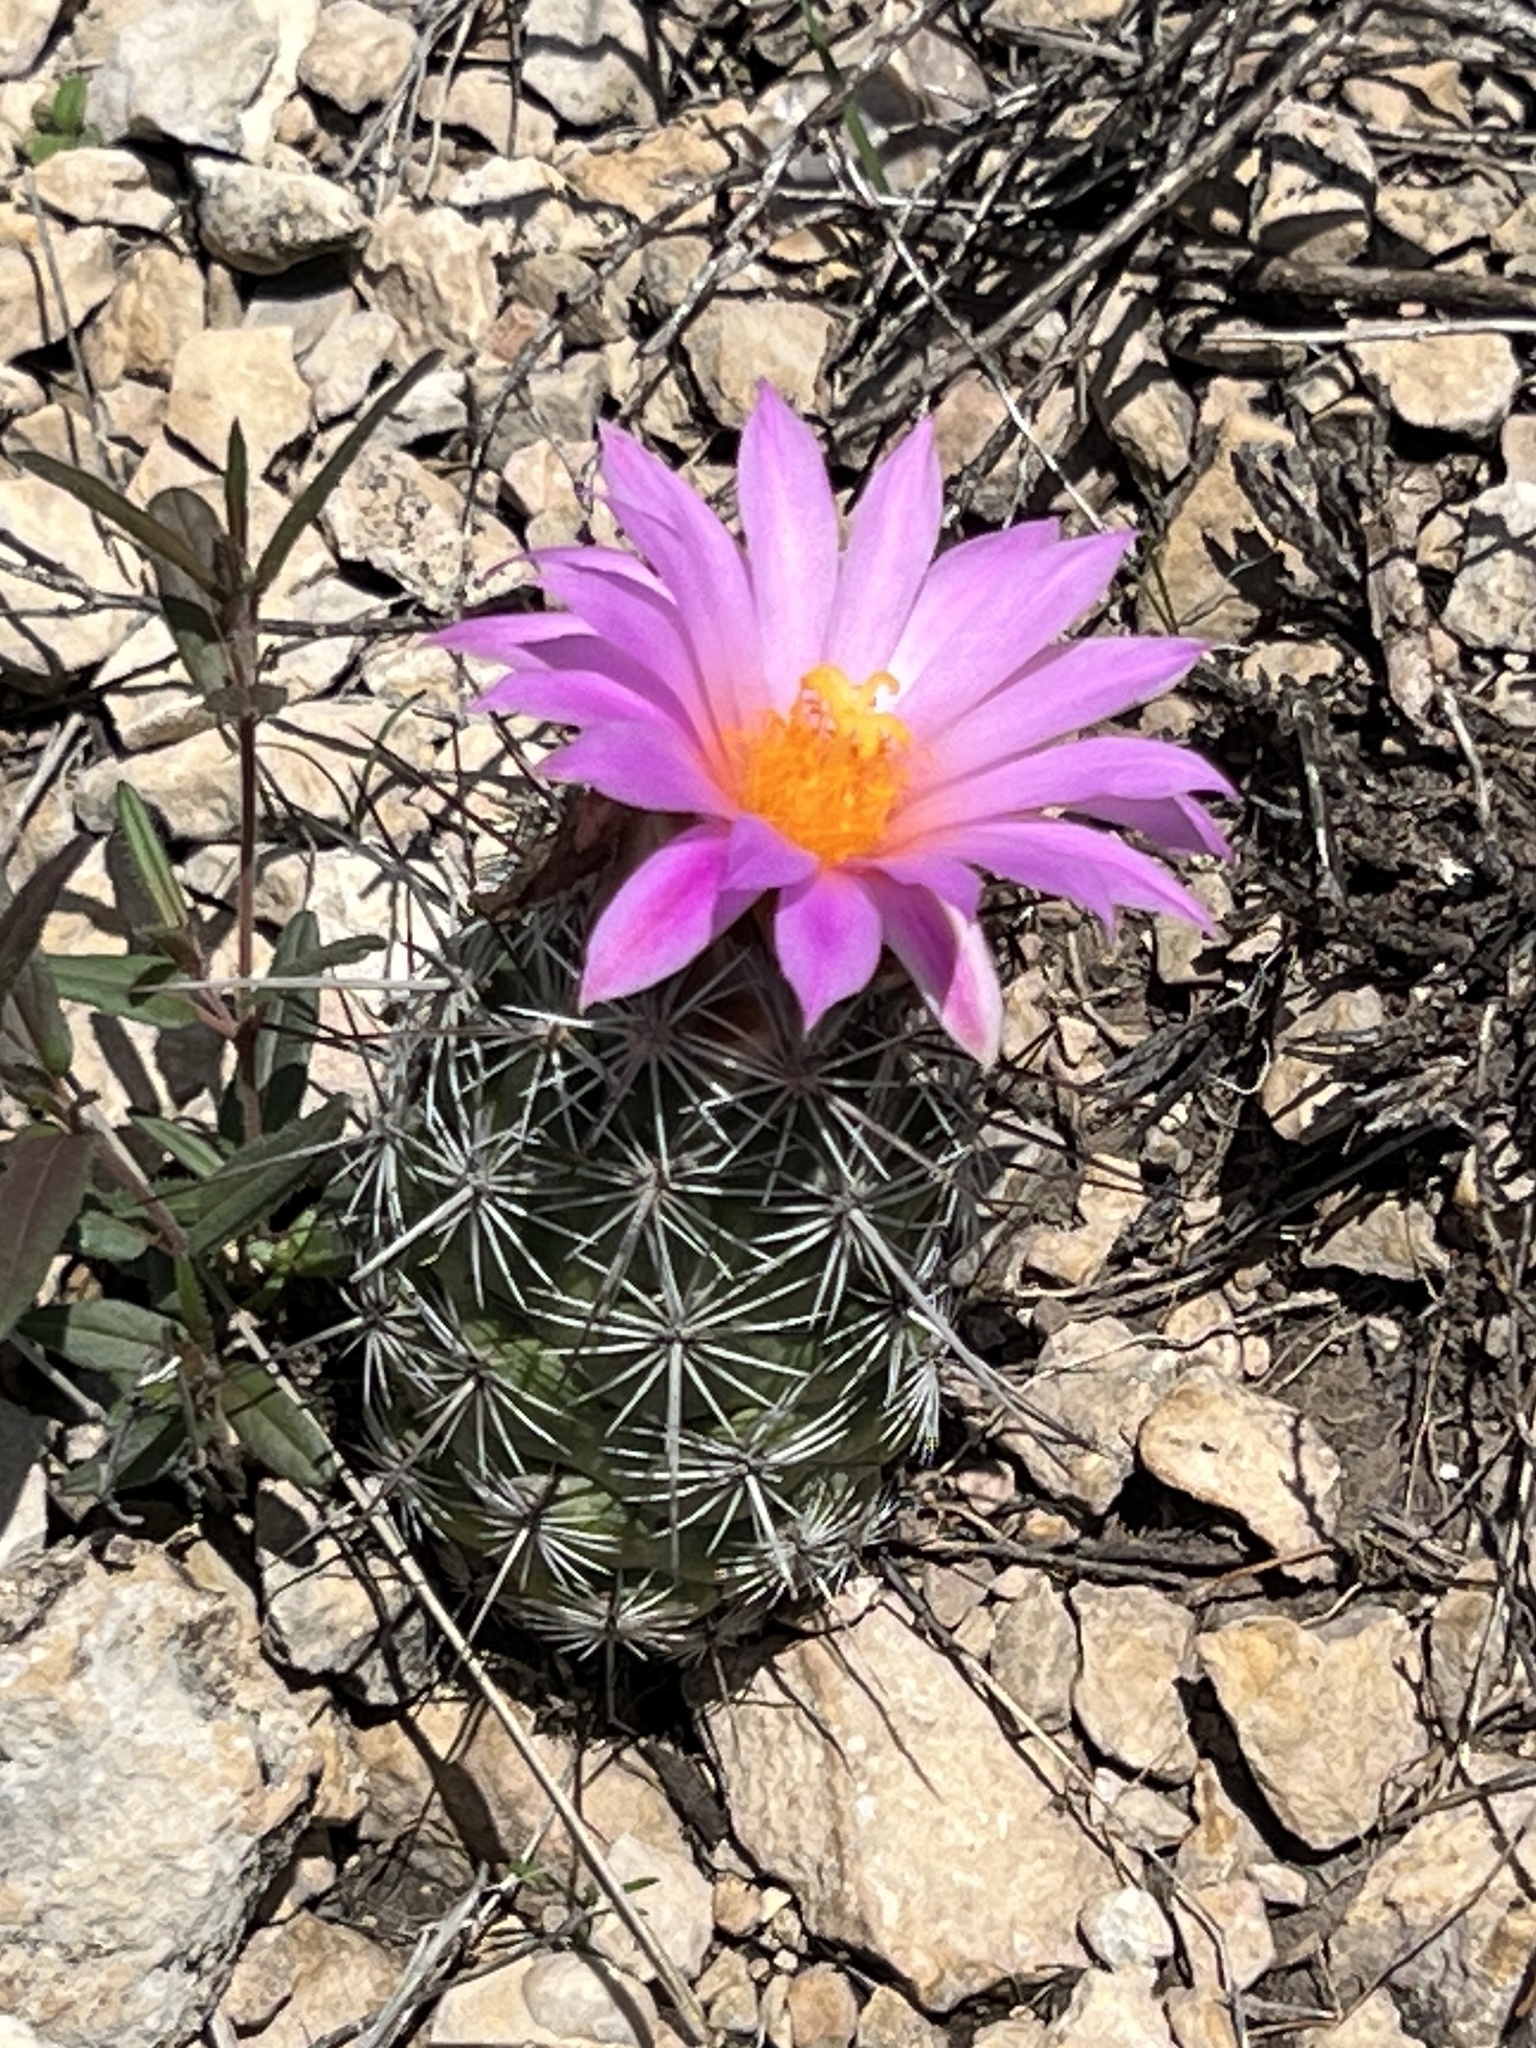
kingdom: Plantae
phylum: Tracheophyta
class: Magnoliopsida
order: Caryophyllales
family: Cactaceae
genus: Cochemiea
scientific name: Cochemiea conoidea
